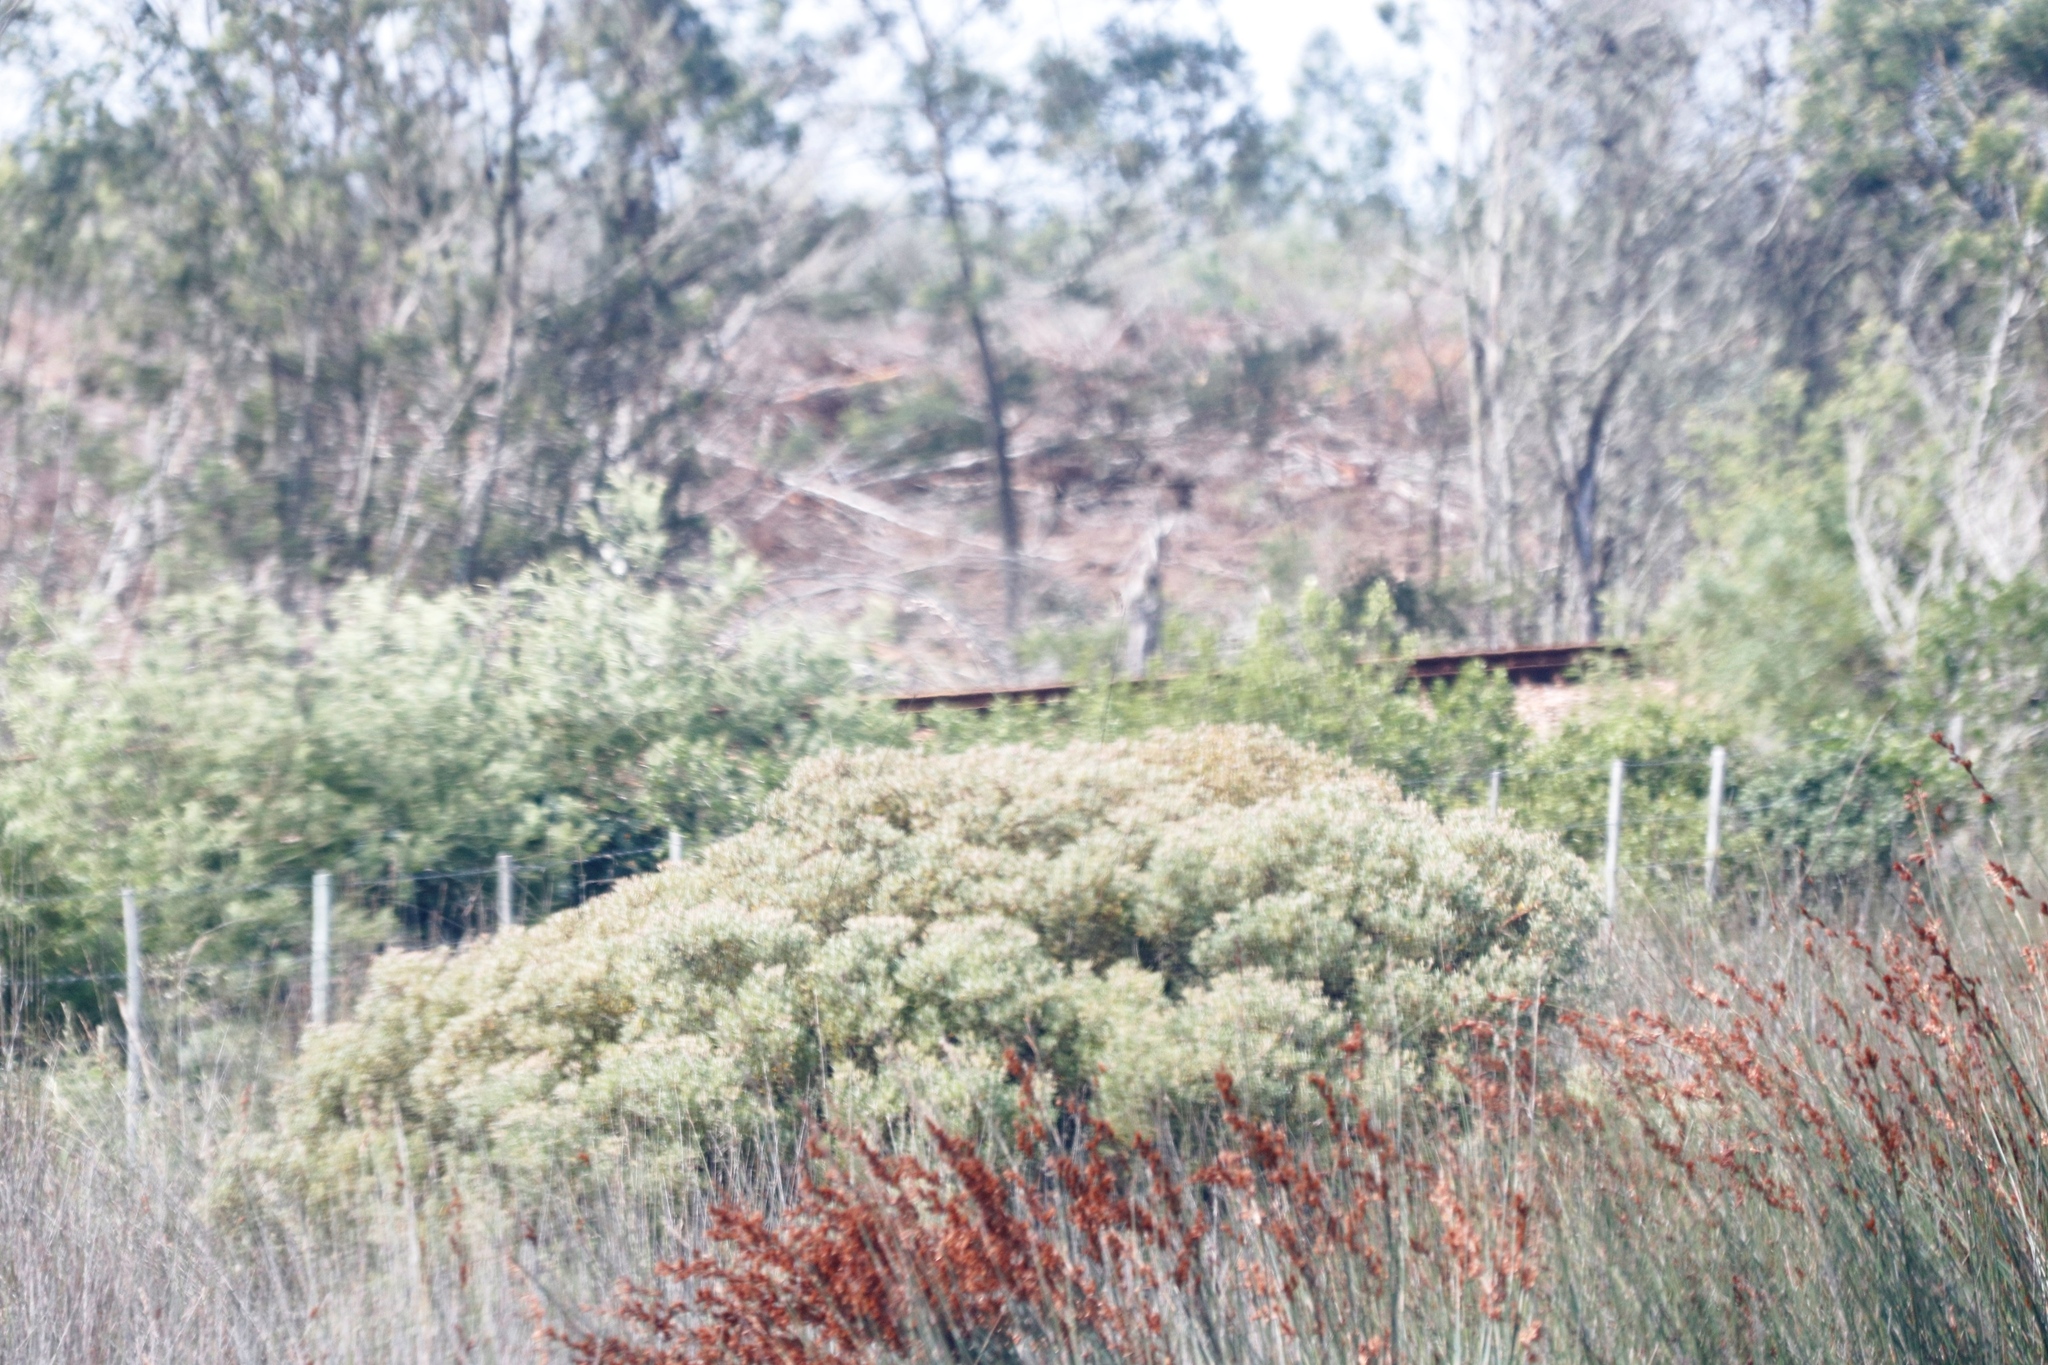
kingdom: Plantae
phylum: Tracheophyta
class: Magnoliopsida
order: Proteales
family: Proteaceae
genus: Leucadendron
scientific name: Leucadendron galpinii
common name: Hairless conebush
